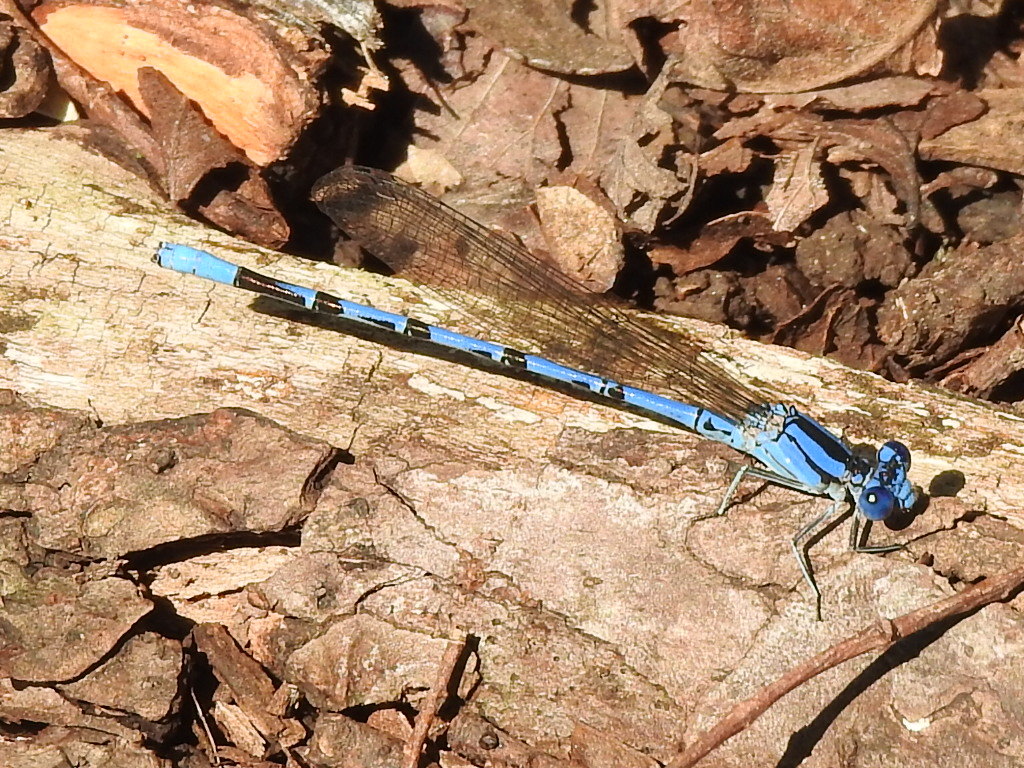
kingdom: Animalia
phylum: Arthropoda
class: Insecta
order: Odonata
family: Coenagrionidae
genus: Argia
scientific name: Argia funebris
